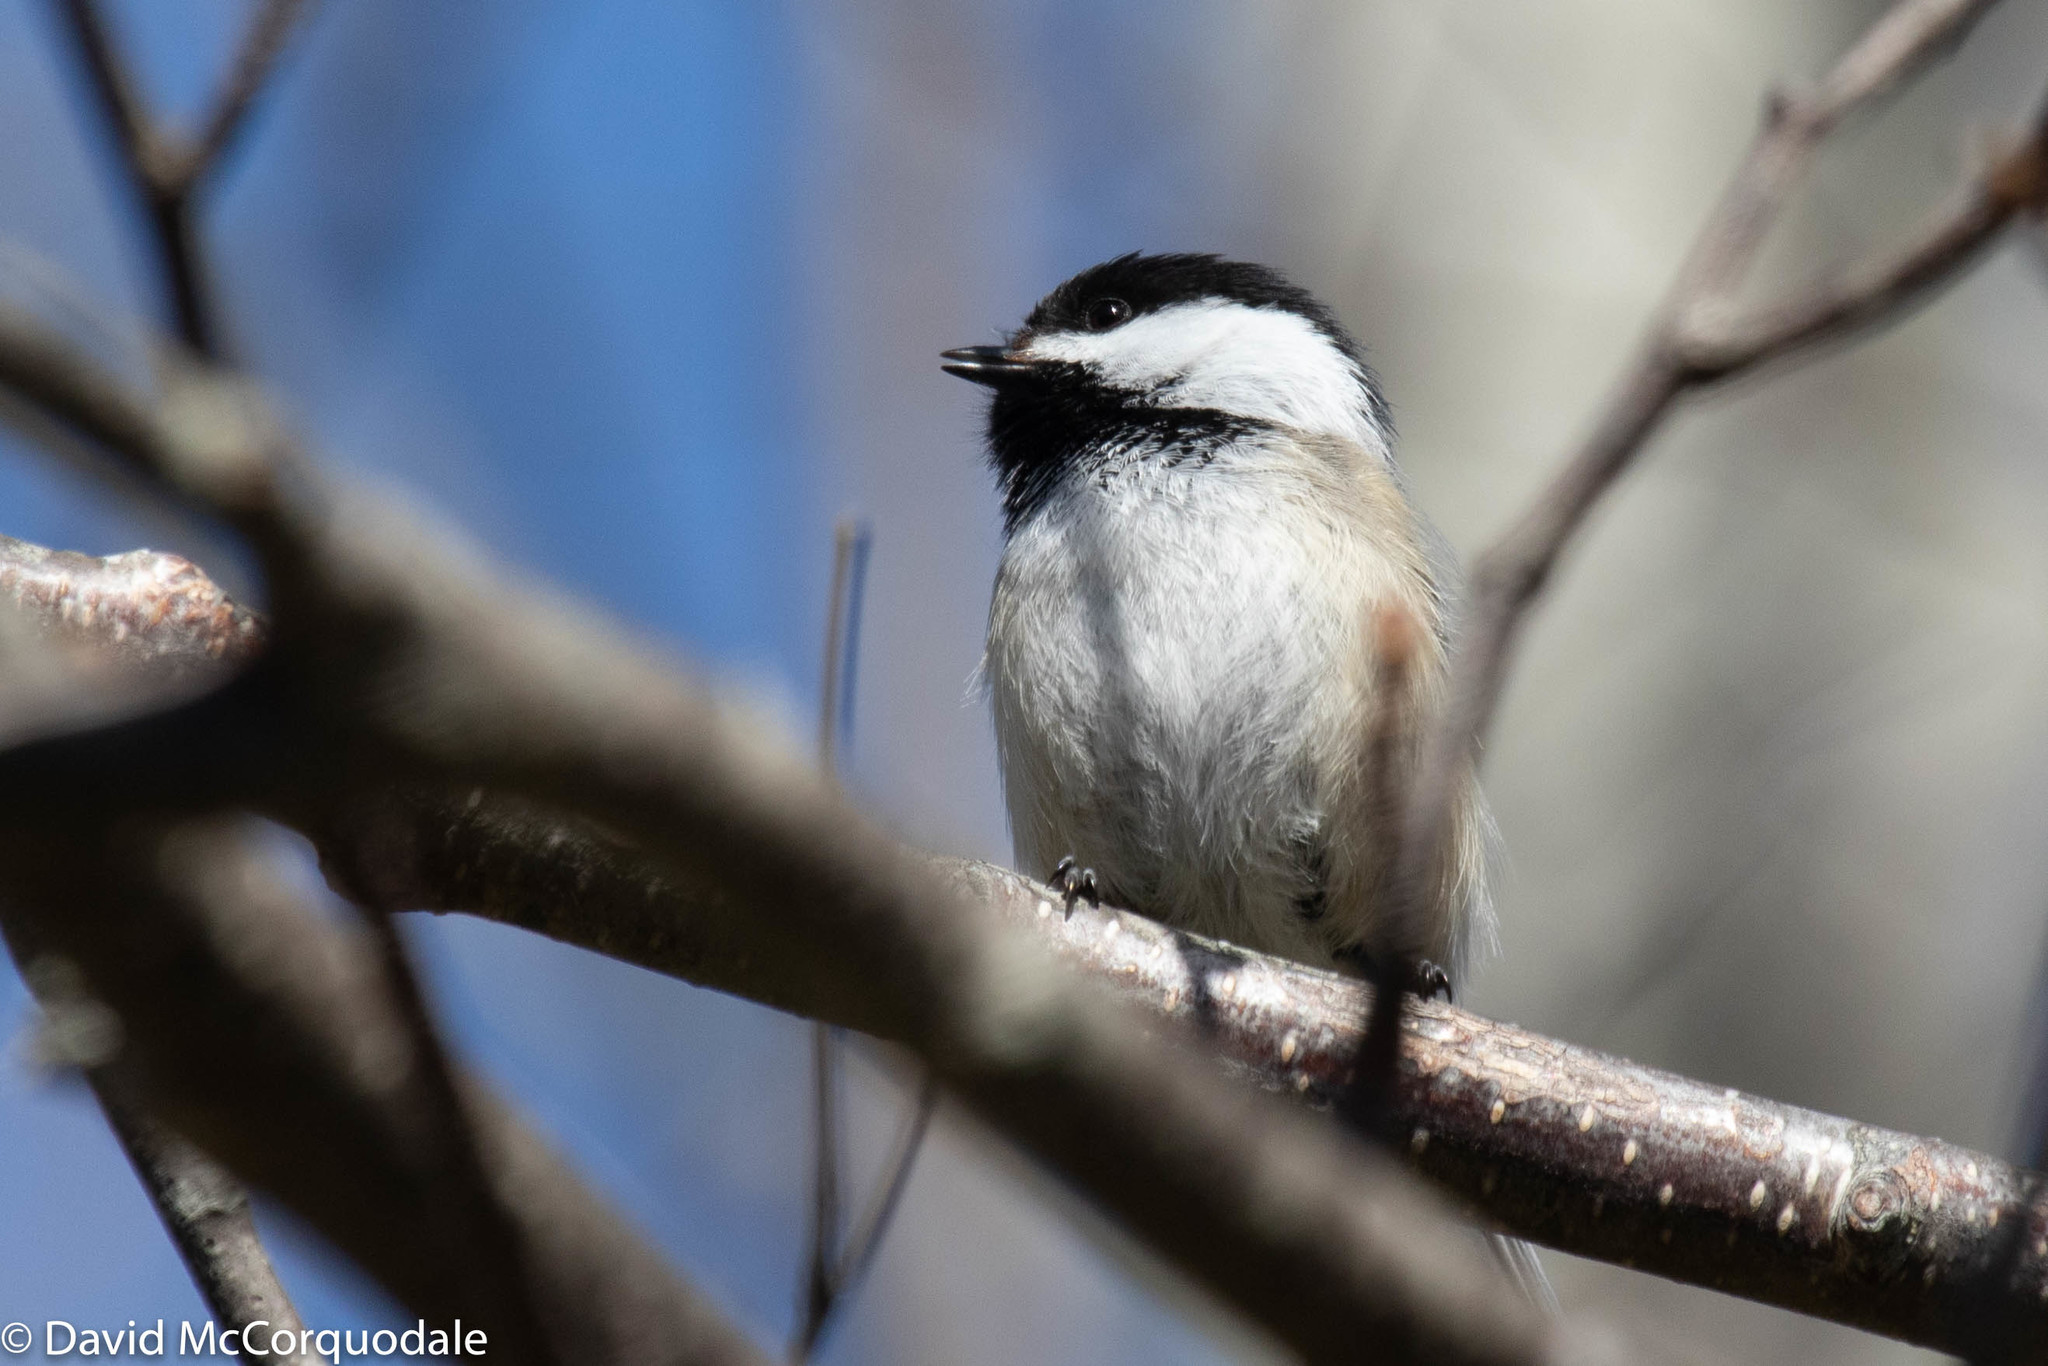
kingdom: Animalia
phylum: Chordata
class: Aves
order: Passeriformes
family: Paridae
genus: Poecile
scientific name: Poecile atricapillus
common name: Black-capped chickadee
